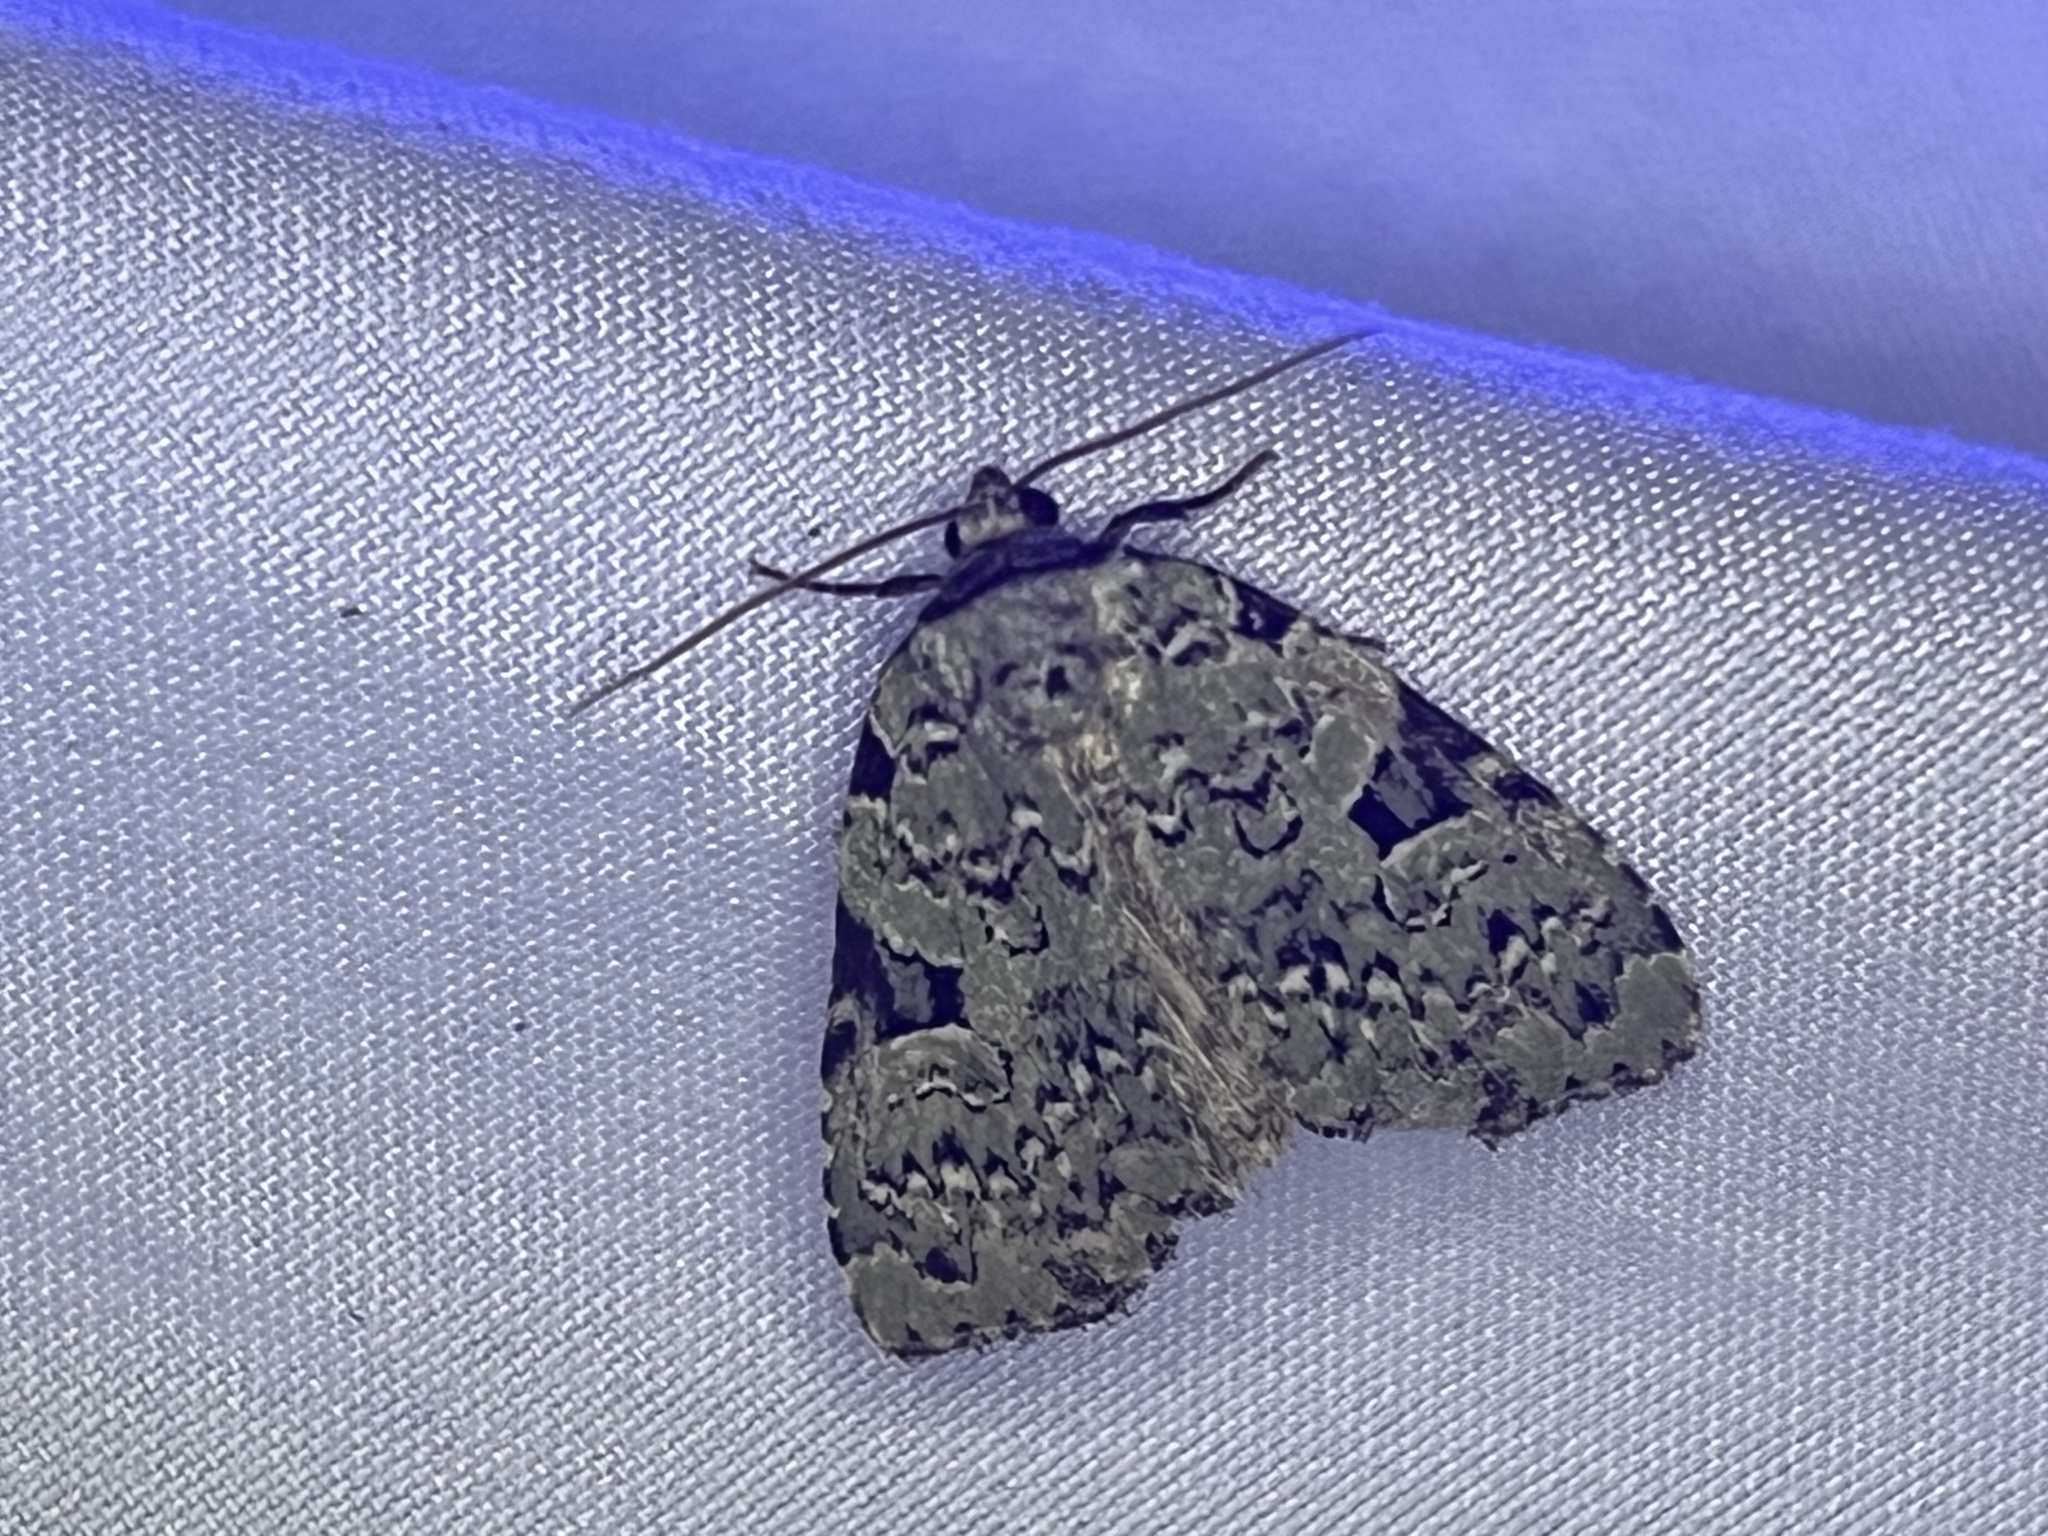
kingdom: Animalia
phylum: Arthropoda
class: Insecta
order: Lepidoptera
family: Noctuidae
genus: Leuconycta
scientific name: Leuconycta diphteroides
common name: Green leuconycta moth
